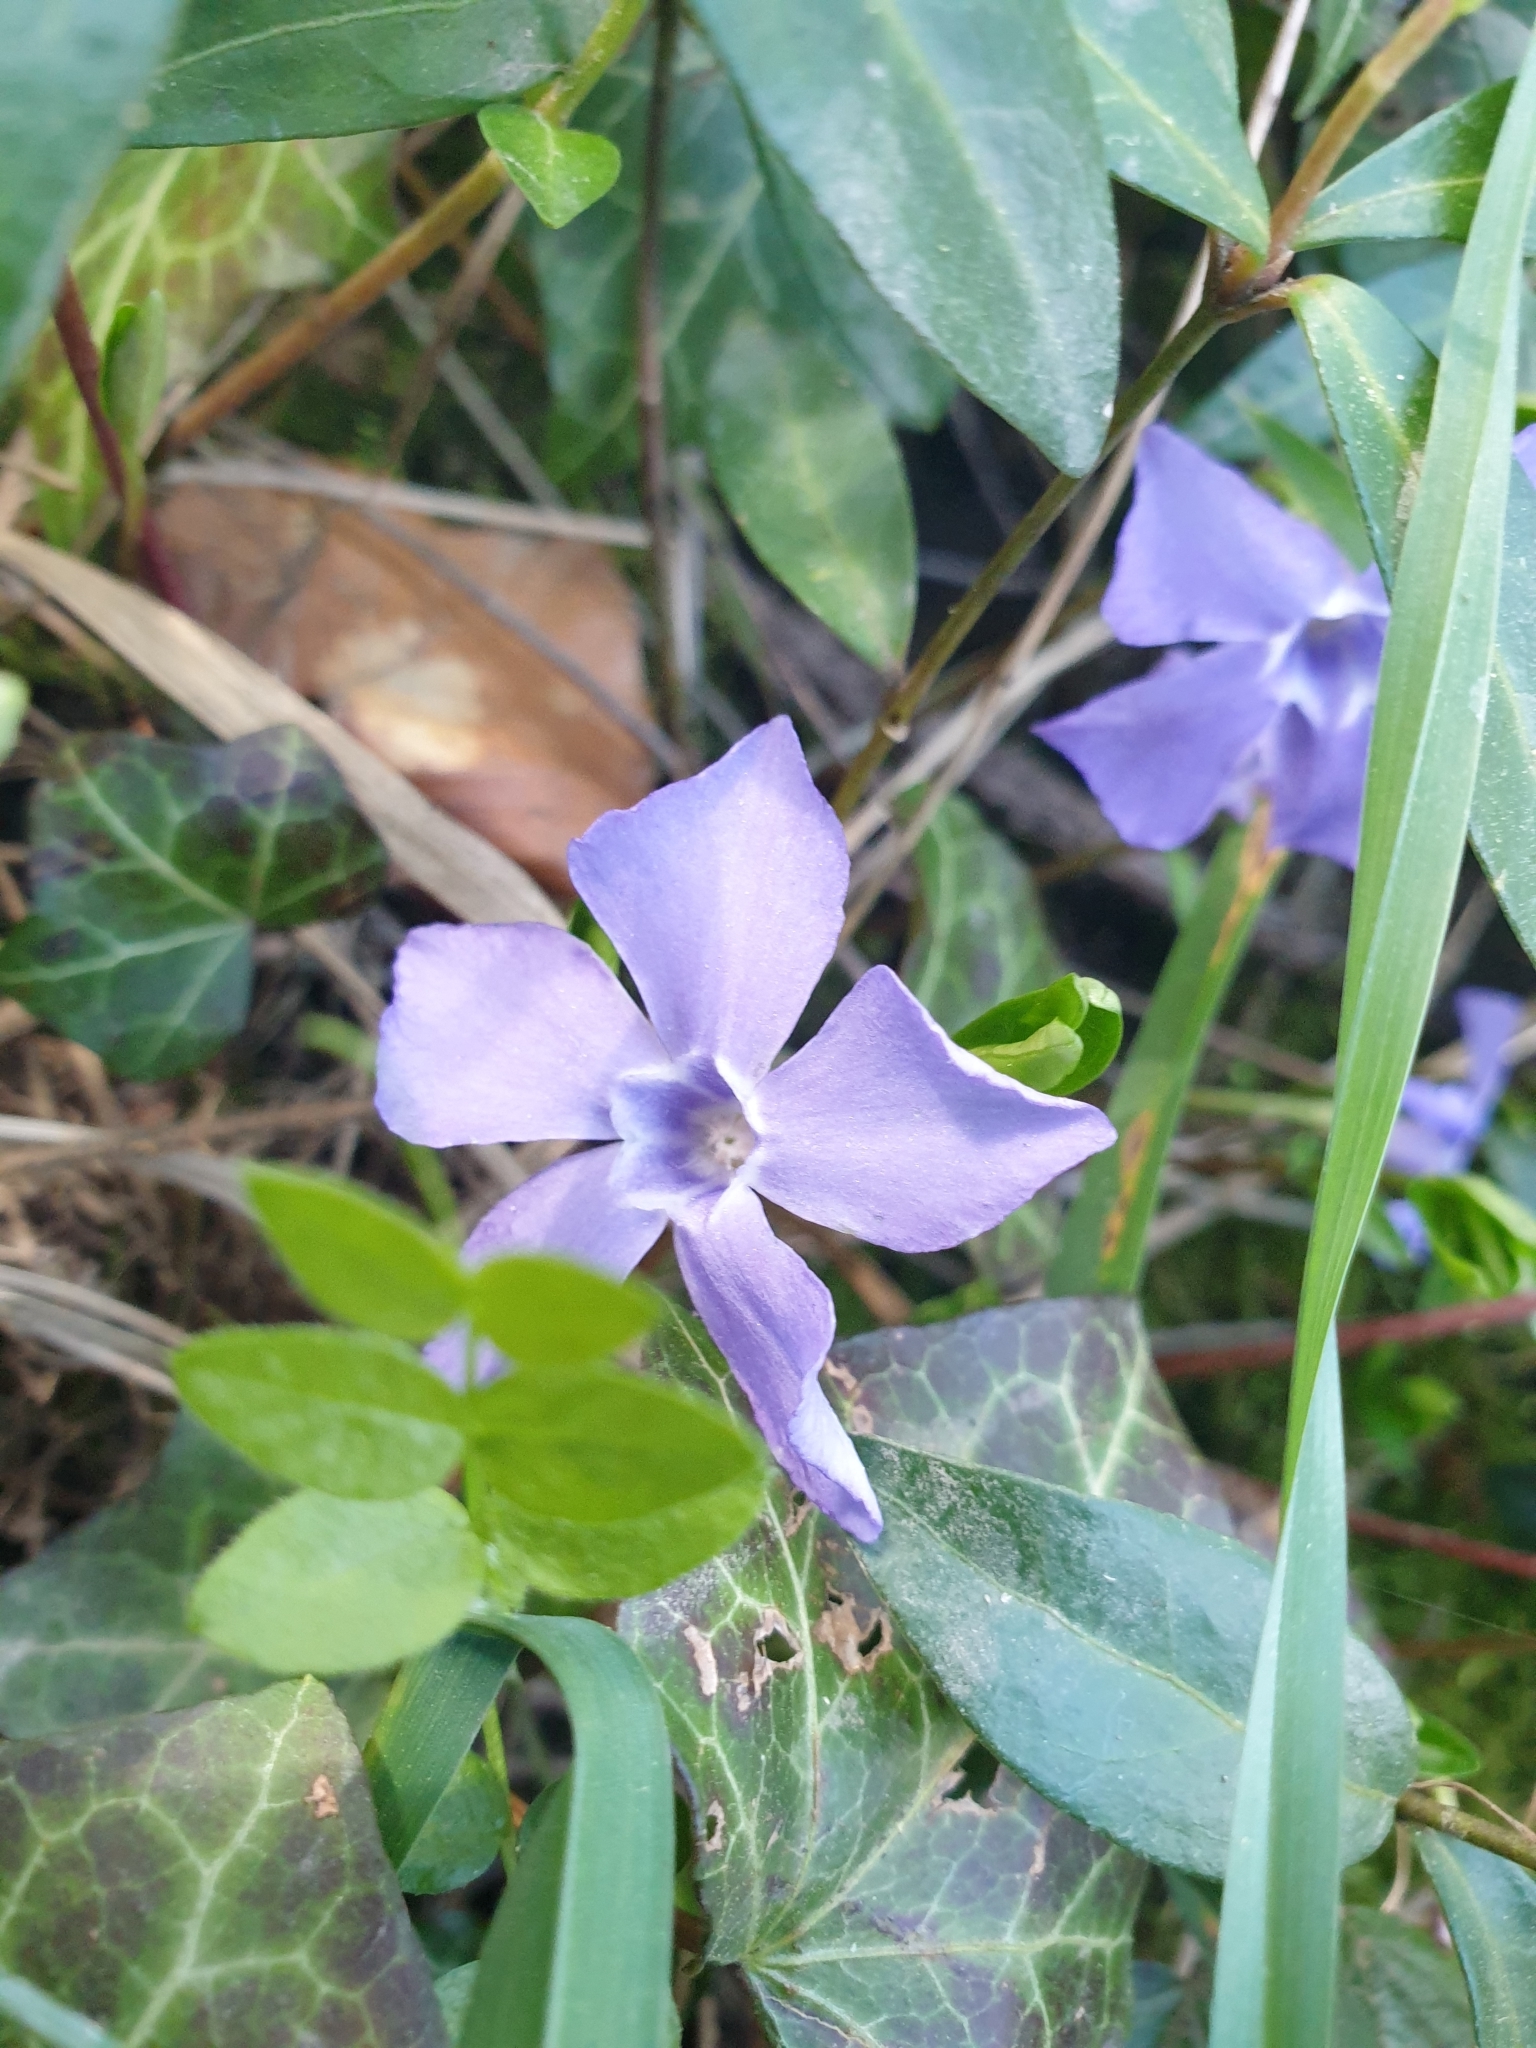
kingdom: Plantae
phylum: Tracheophyta
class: Magnoliopsida
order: Gentianales
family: Apocynaceae
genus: Vinca
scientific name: Vinca minor
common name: Lesser periwinkle
